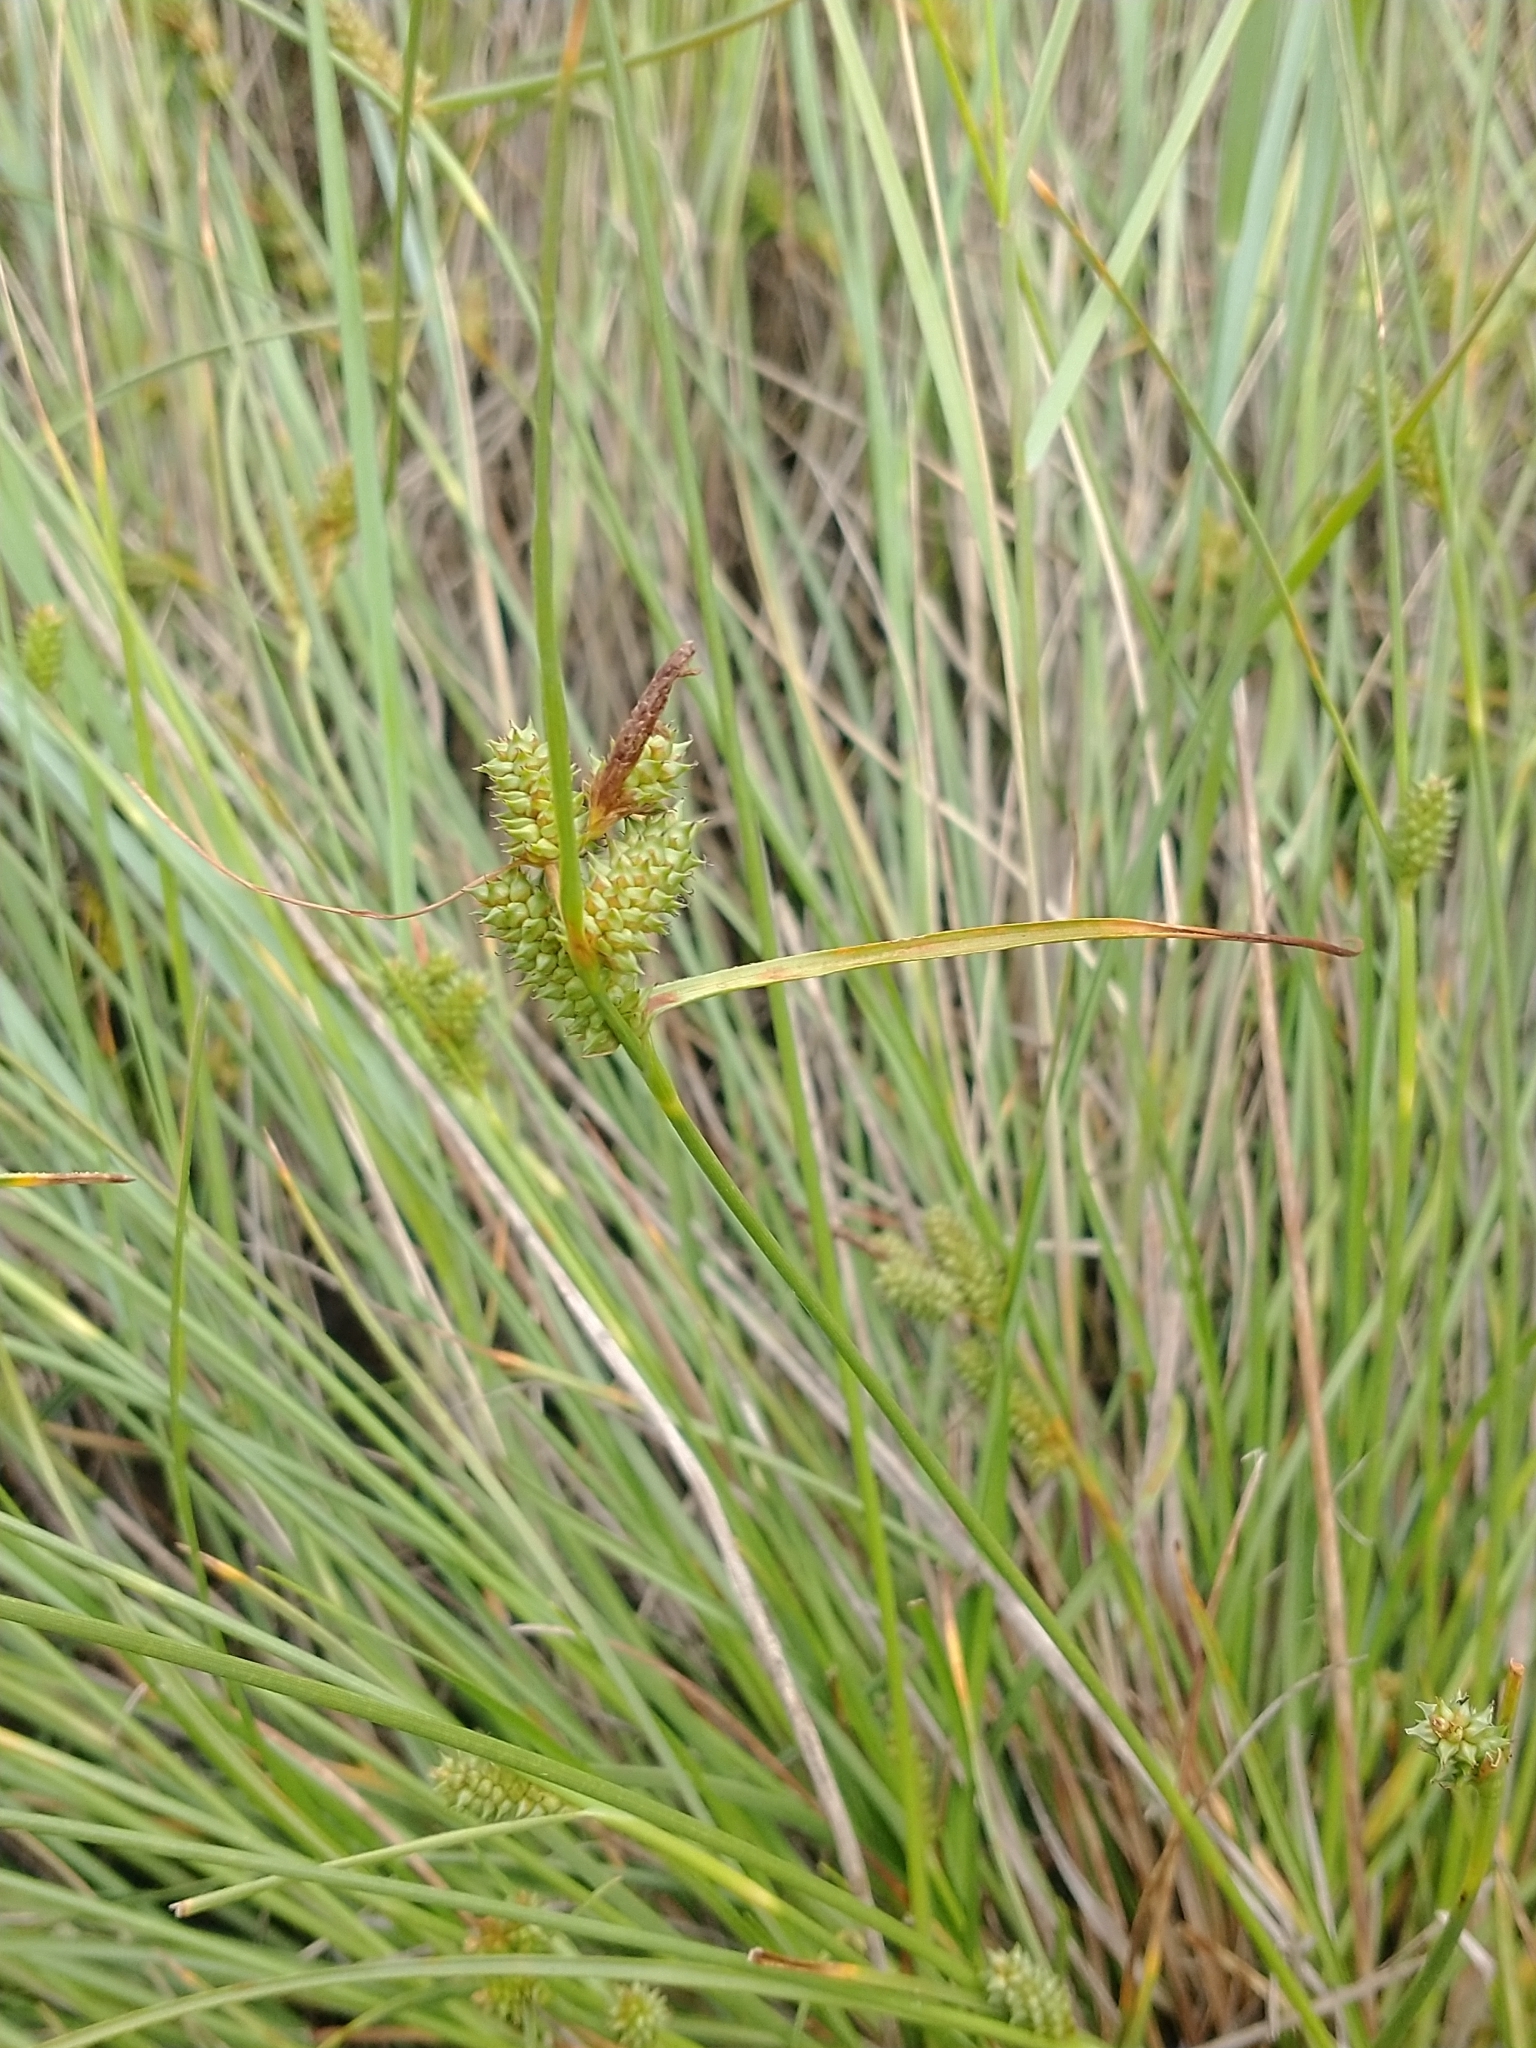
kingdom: Plantae
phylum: Tracheophyta
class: Liliopsida
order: Poales
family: Cyperaceae
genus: Carex
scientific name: Carex extensa
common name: Long-bracted sedge
